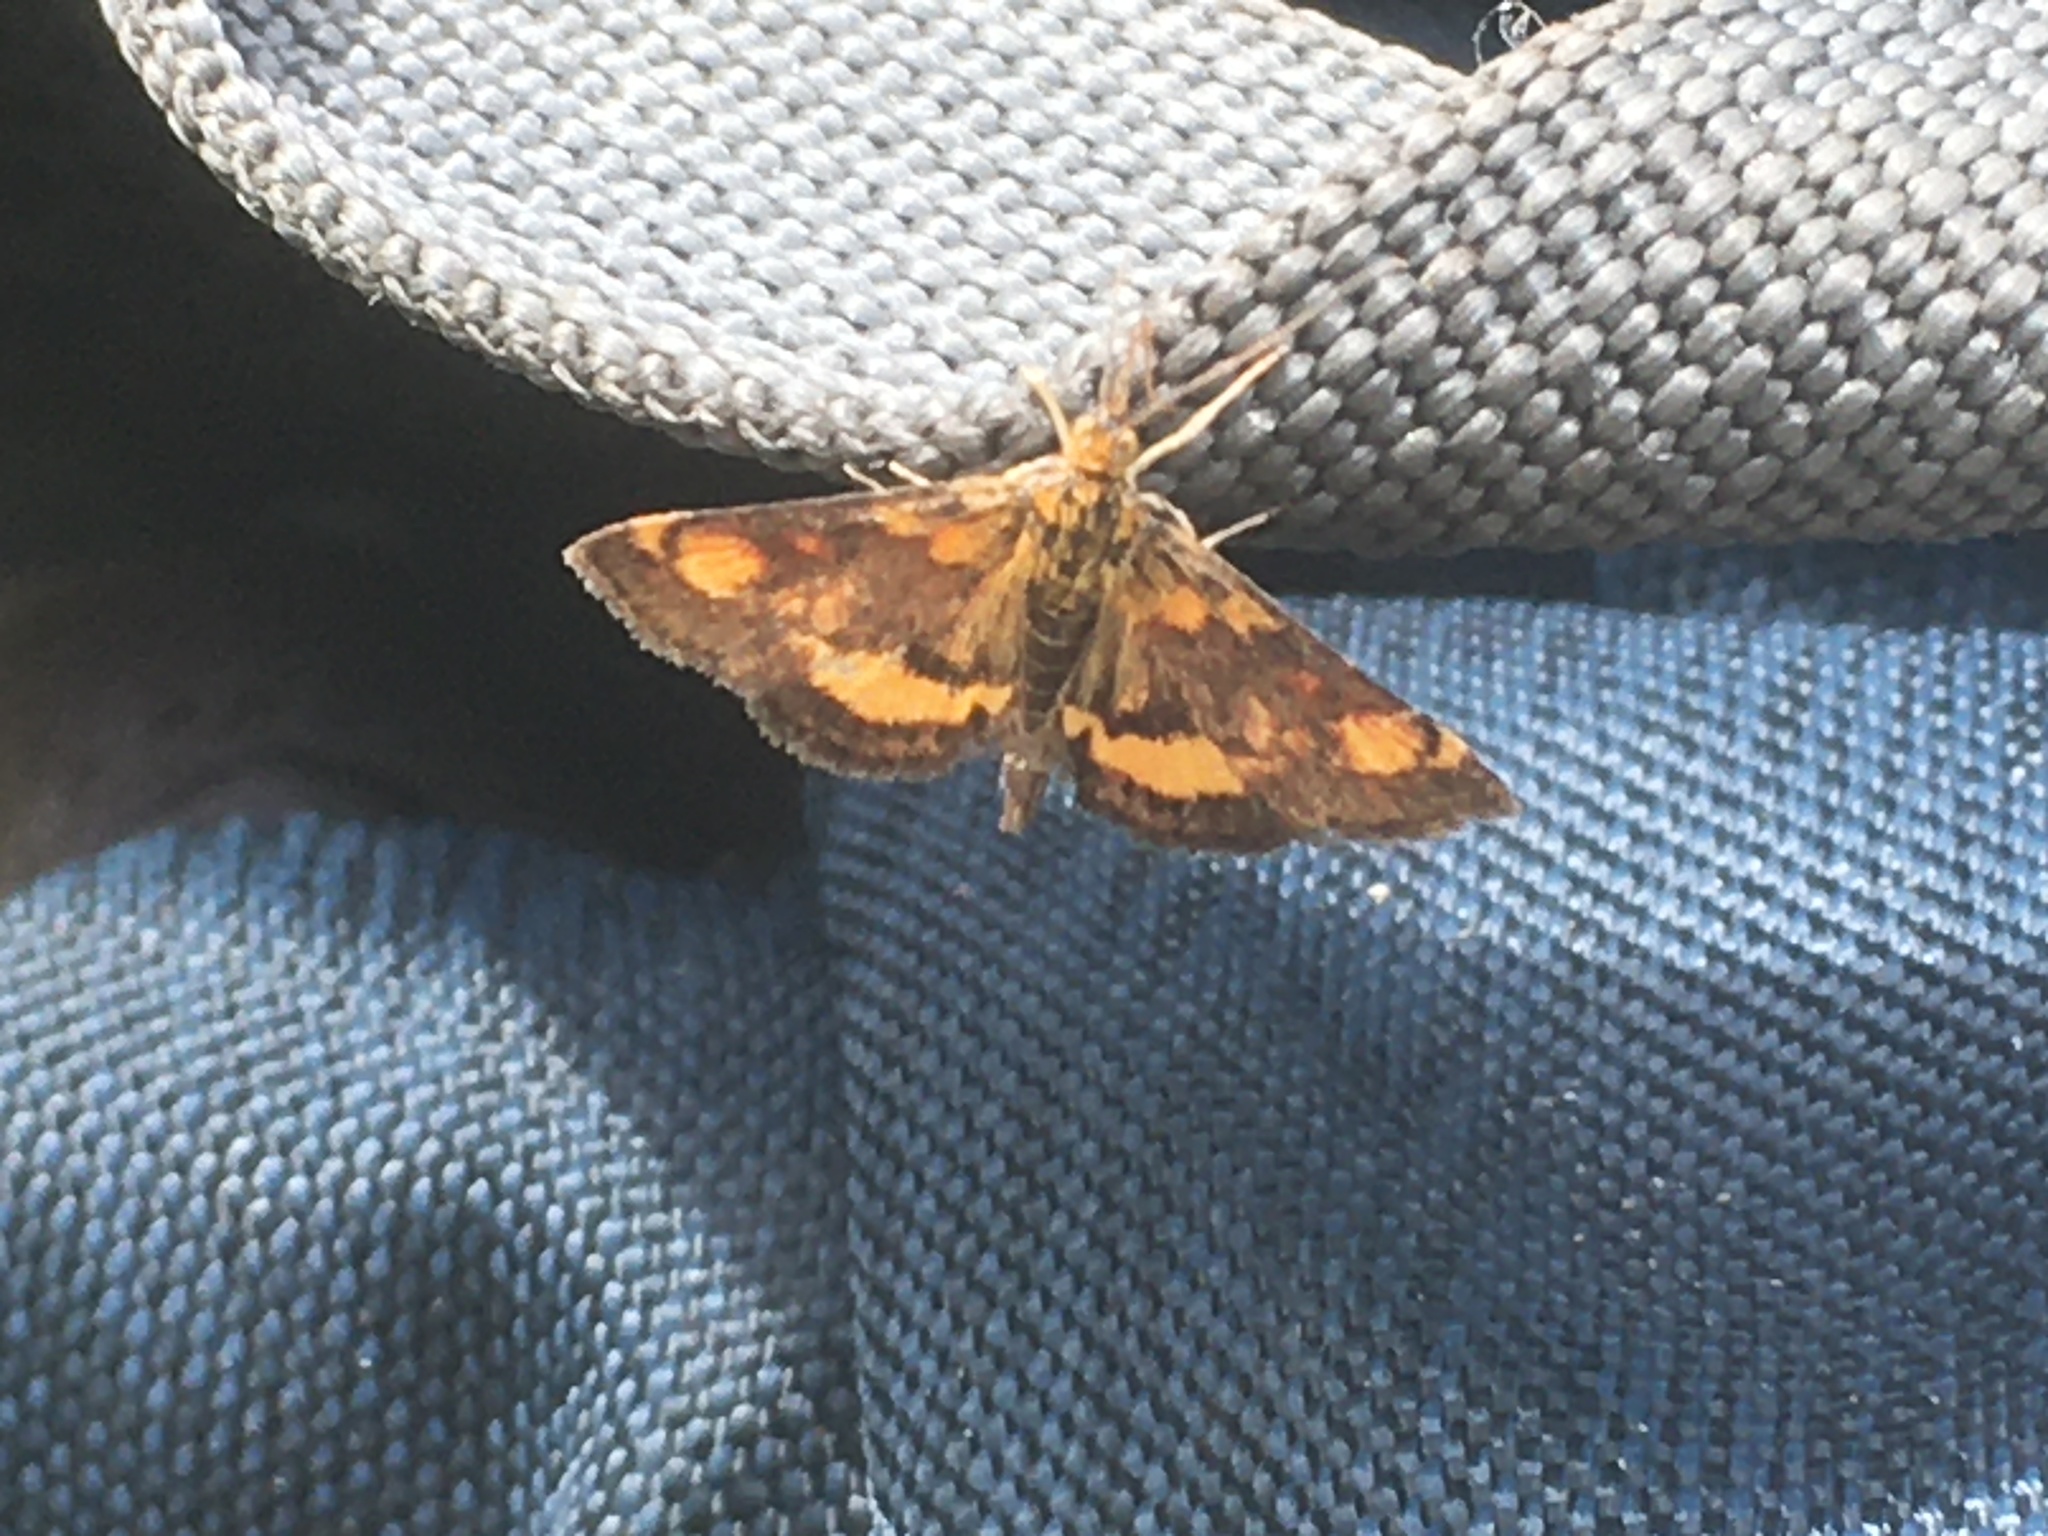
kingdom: Animalia
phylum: Arthropoda
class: Insecta
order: Lepidoptera
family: Crambidae
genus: Pyrausta
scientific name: Pyrausta orphisalis
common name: Orange mint moth
